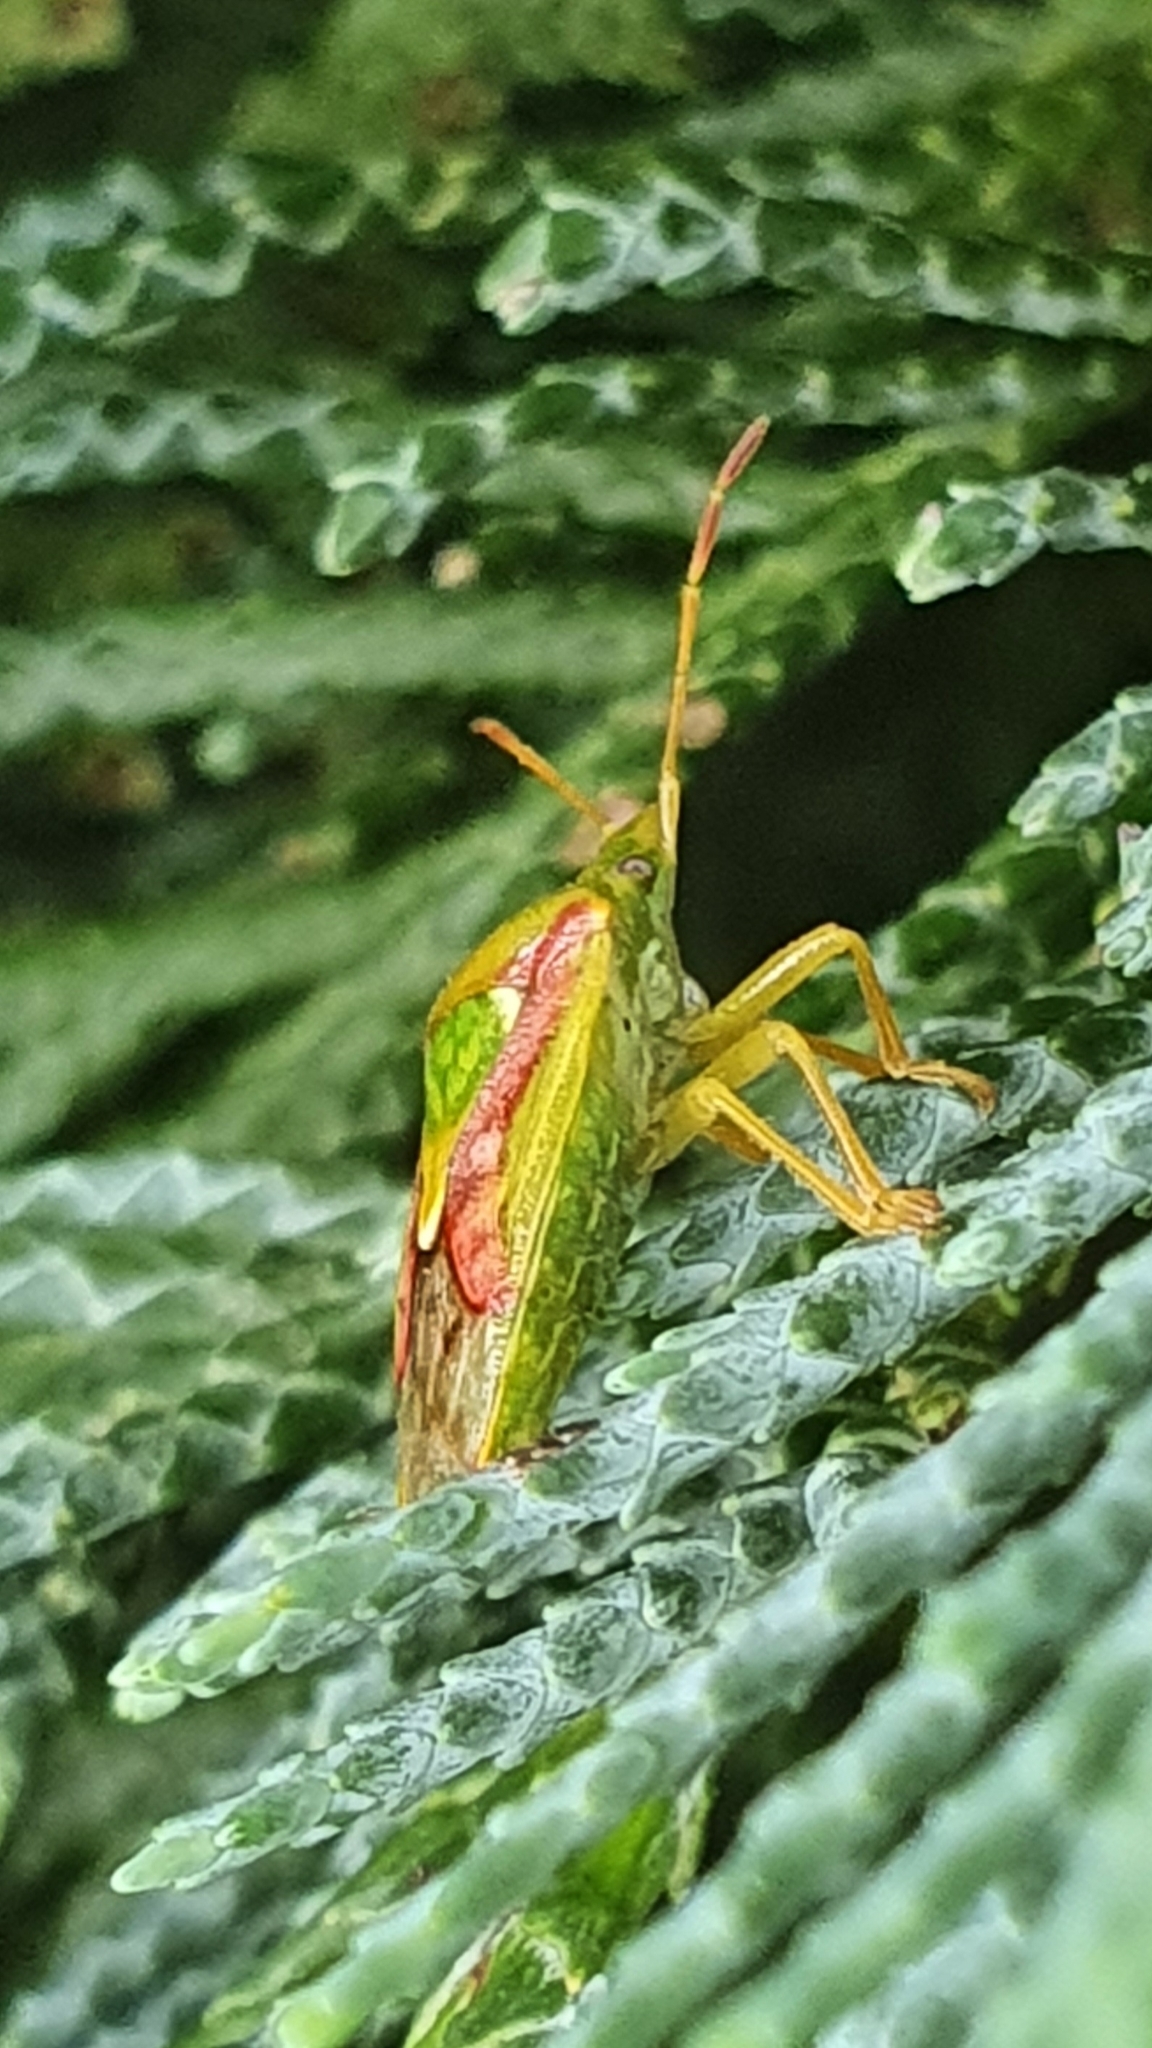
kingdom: Animalia
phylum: Arthropoda
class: Insecta
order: Hemiptera
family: Acanthosomatidae
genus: Cyphostethus
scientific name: Cyphostethus tristriatus
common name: Juniper shieldbug
